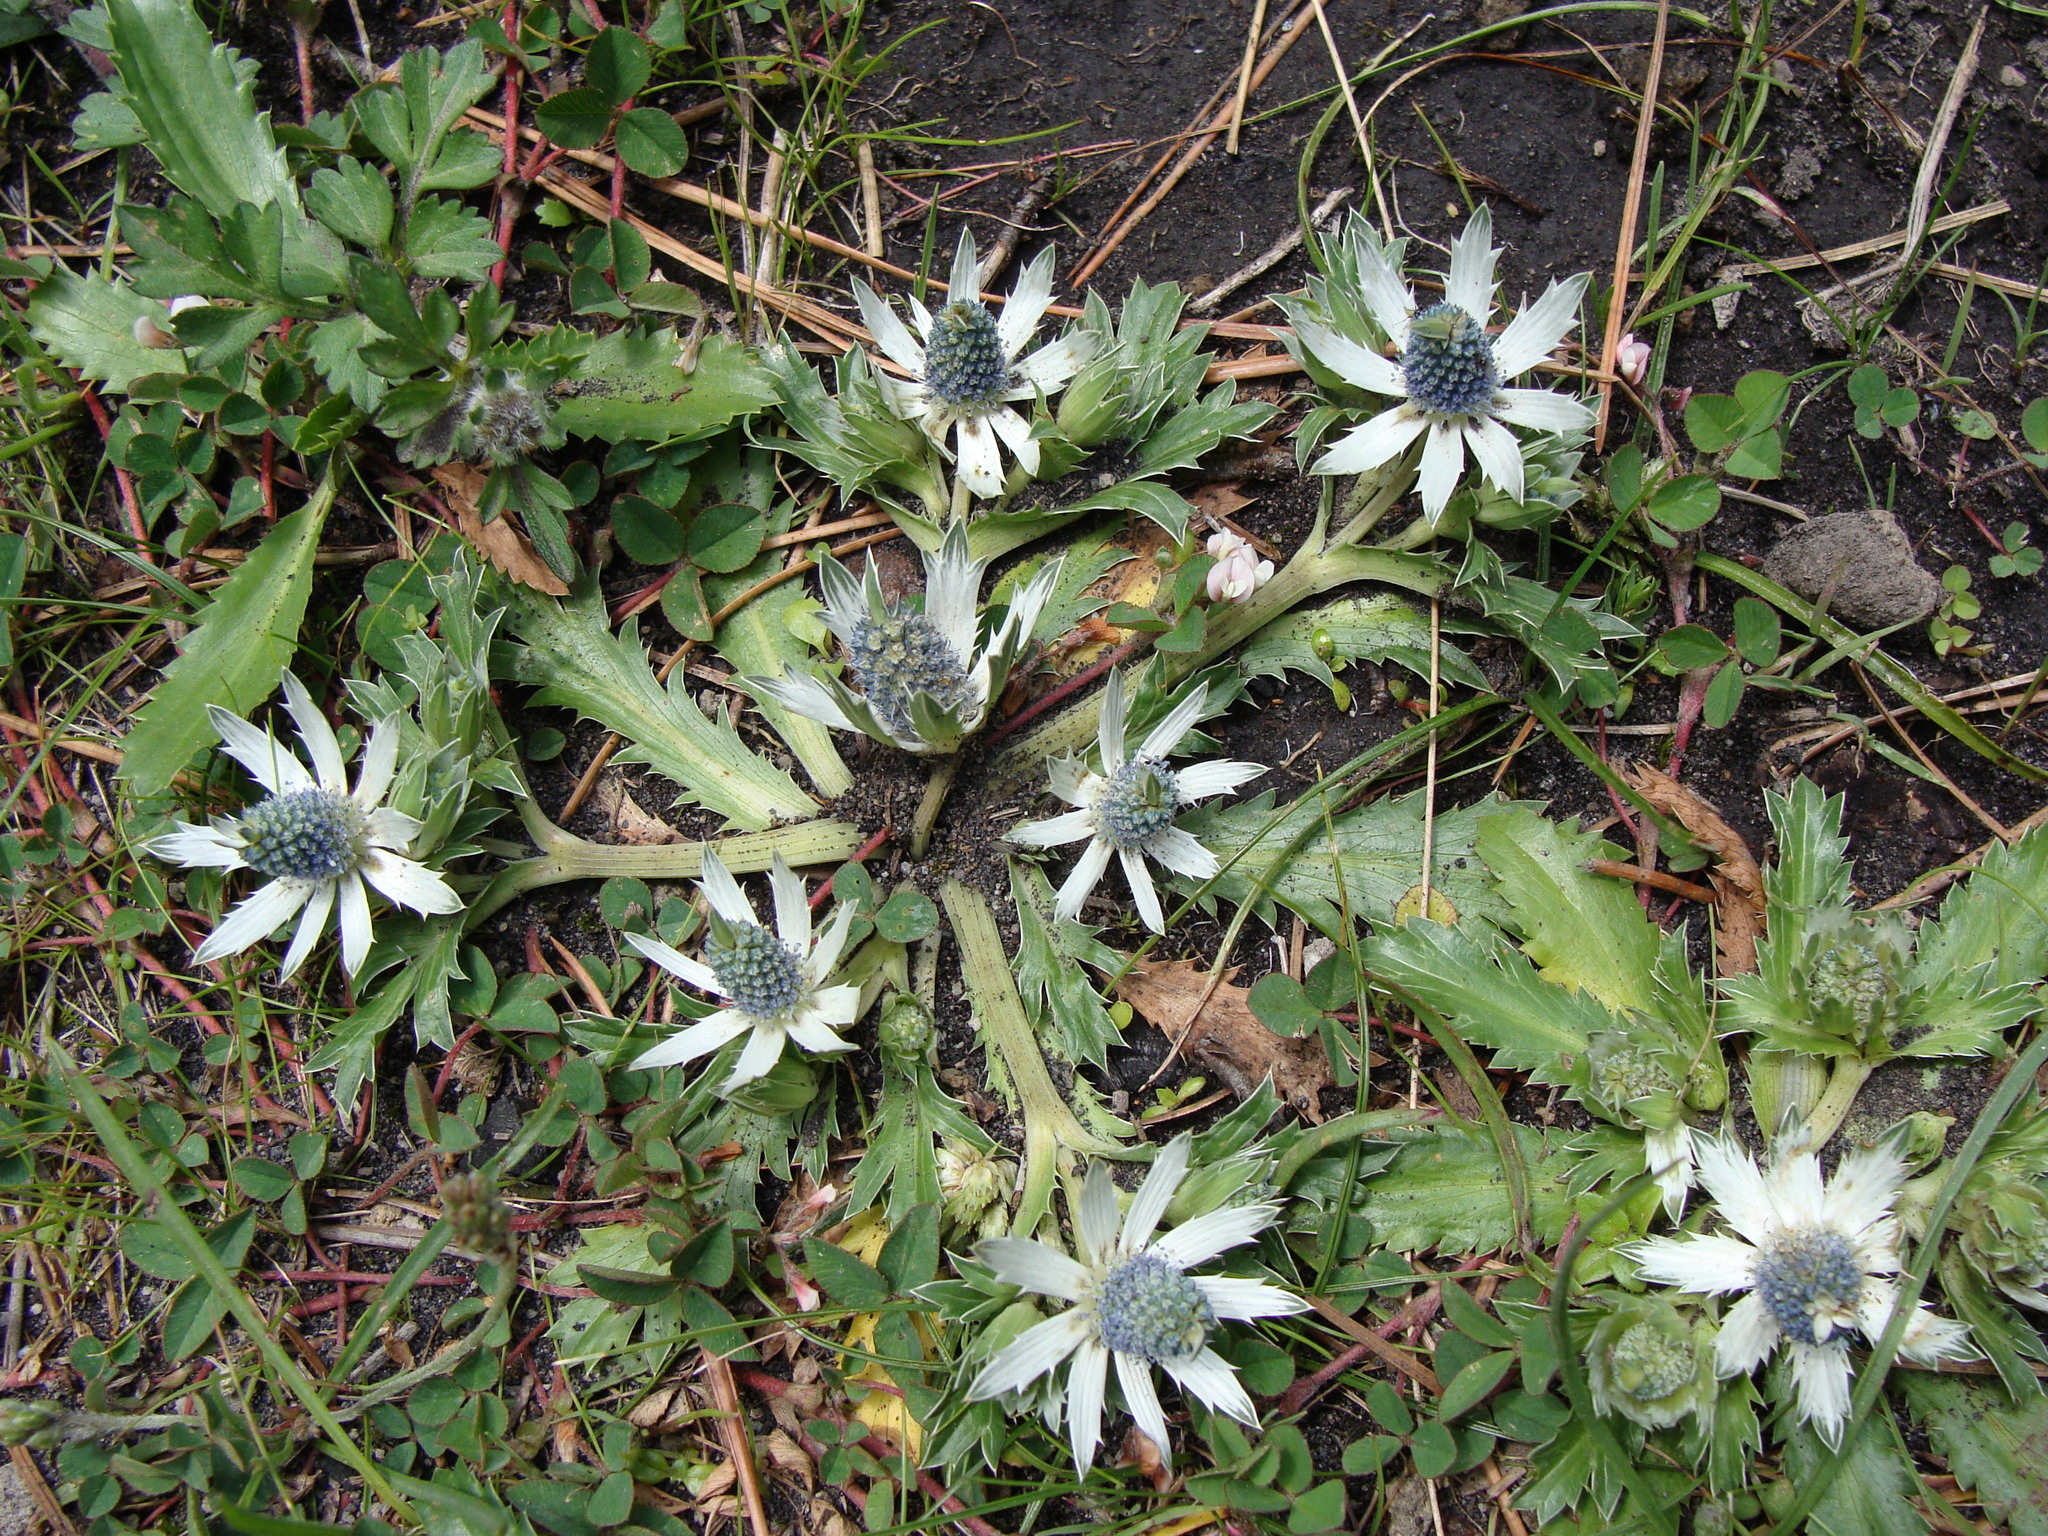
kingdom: Plantae
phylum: Tracheophyta
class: Magnoliopsida
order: Apiales
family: Apiaceae
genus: Eryngium
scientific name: Eryngium carlinae
